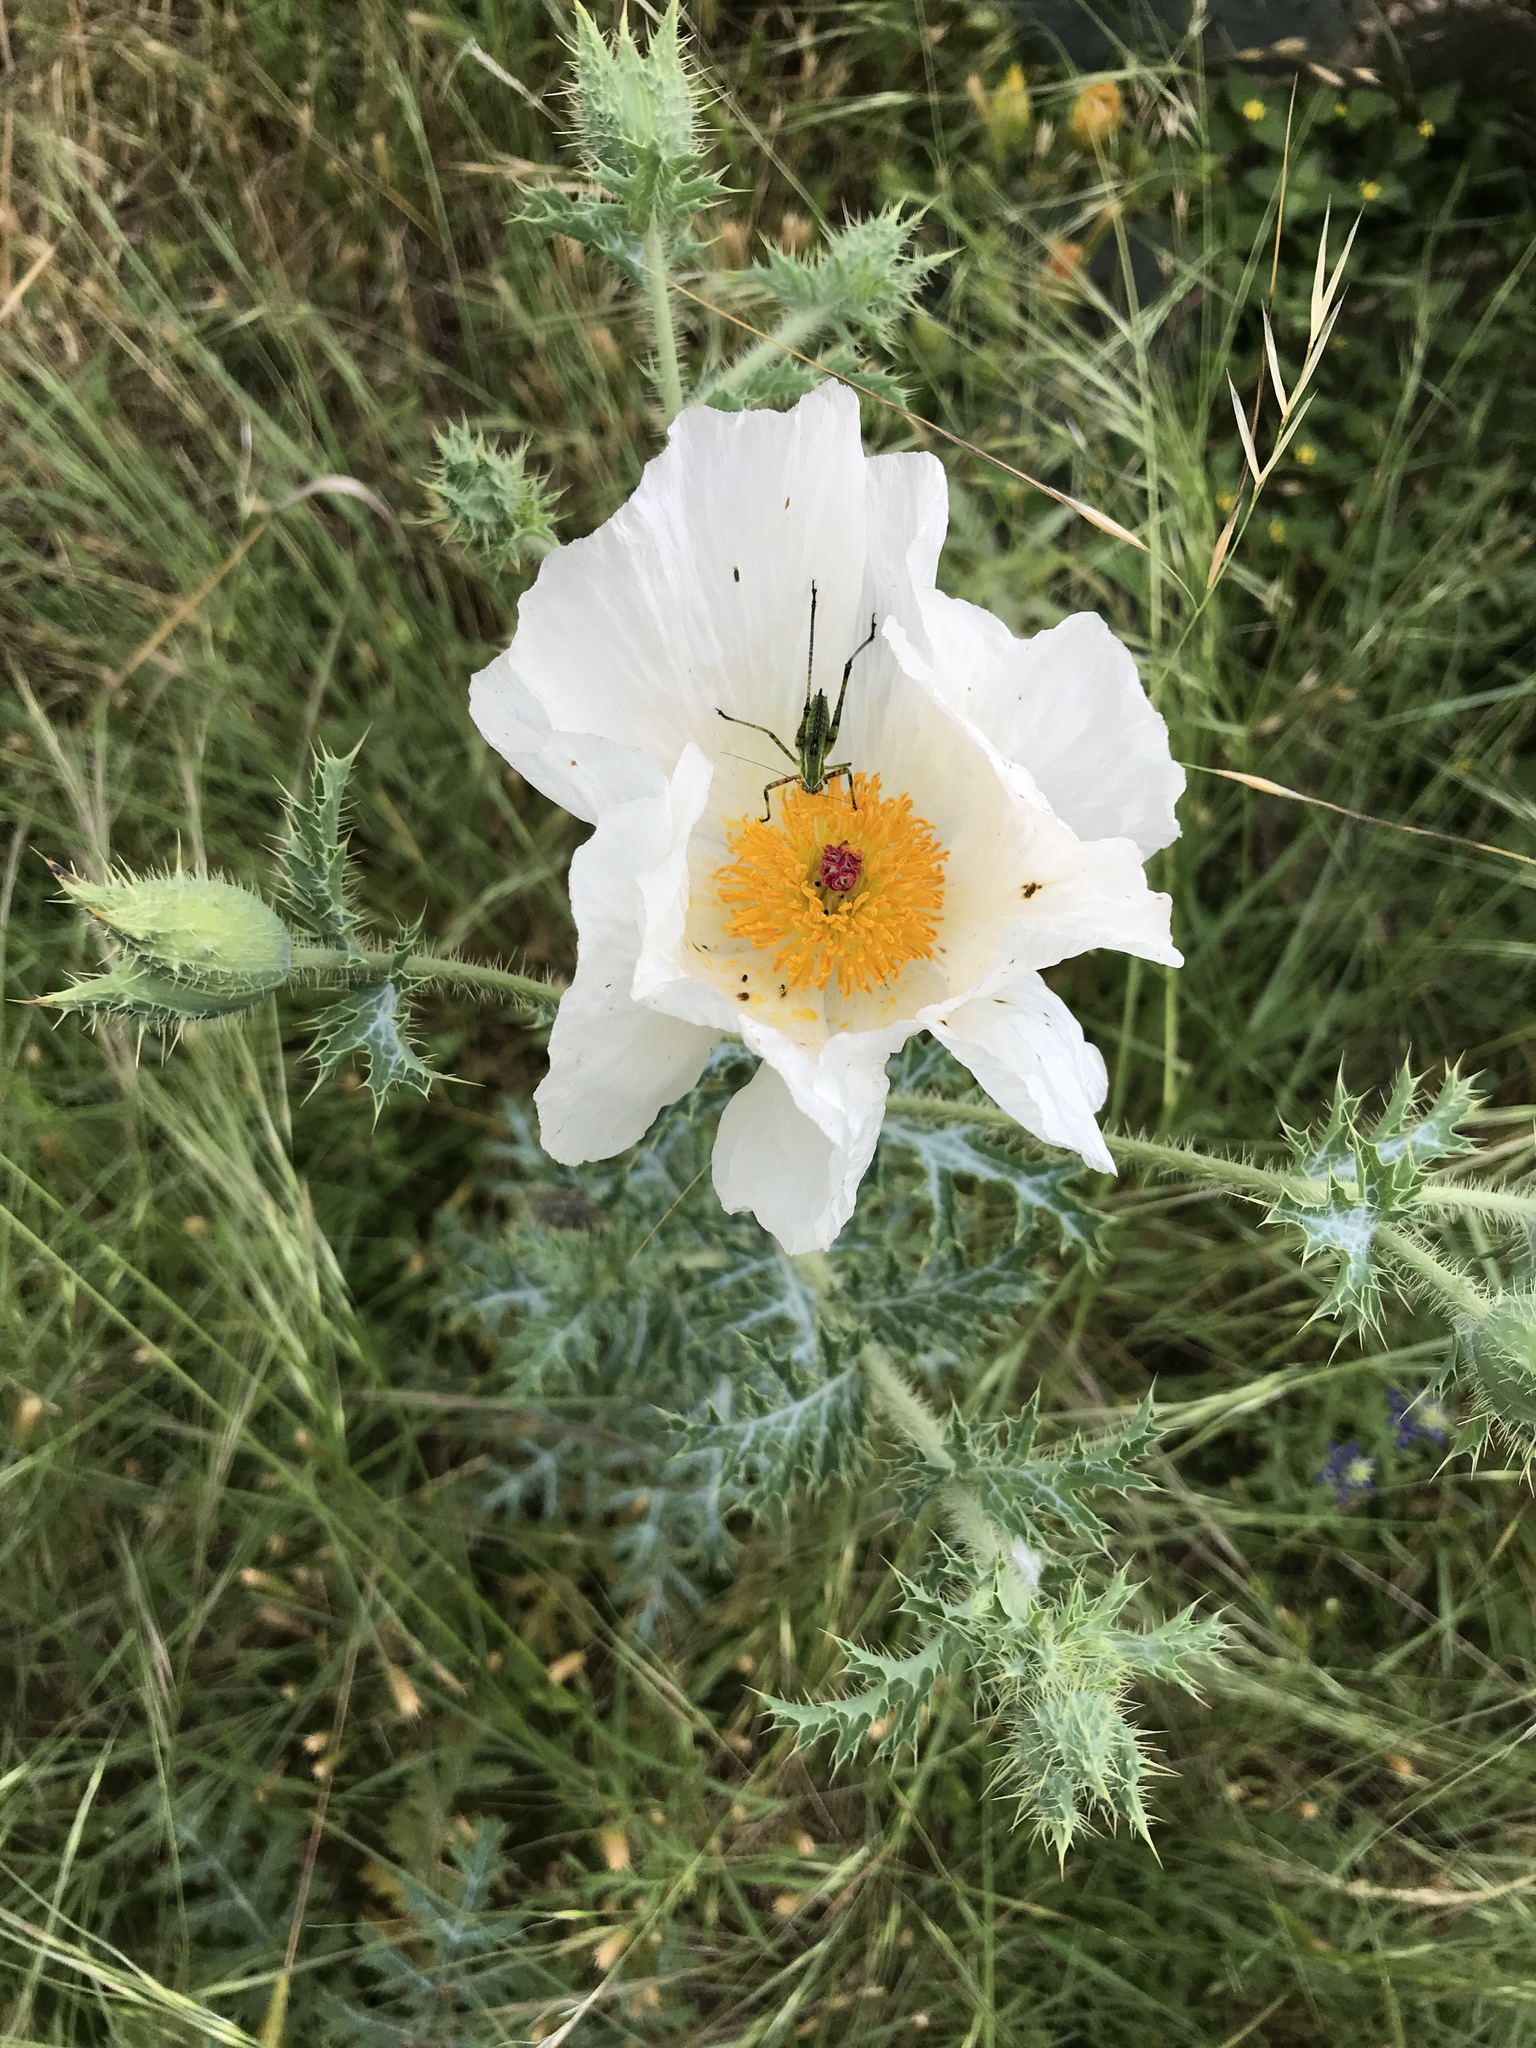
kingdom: Plantae
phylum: Tracheophyta
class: Magnoliopsida
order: Ranunculales
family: Papaveraceae
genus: Argemone
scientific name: Argemone albiflora
